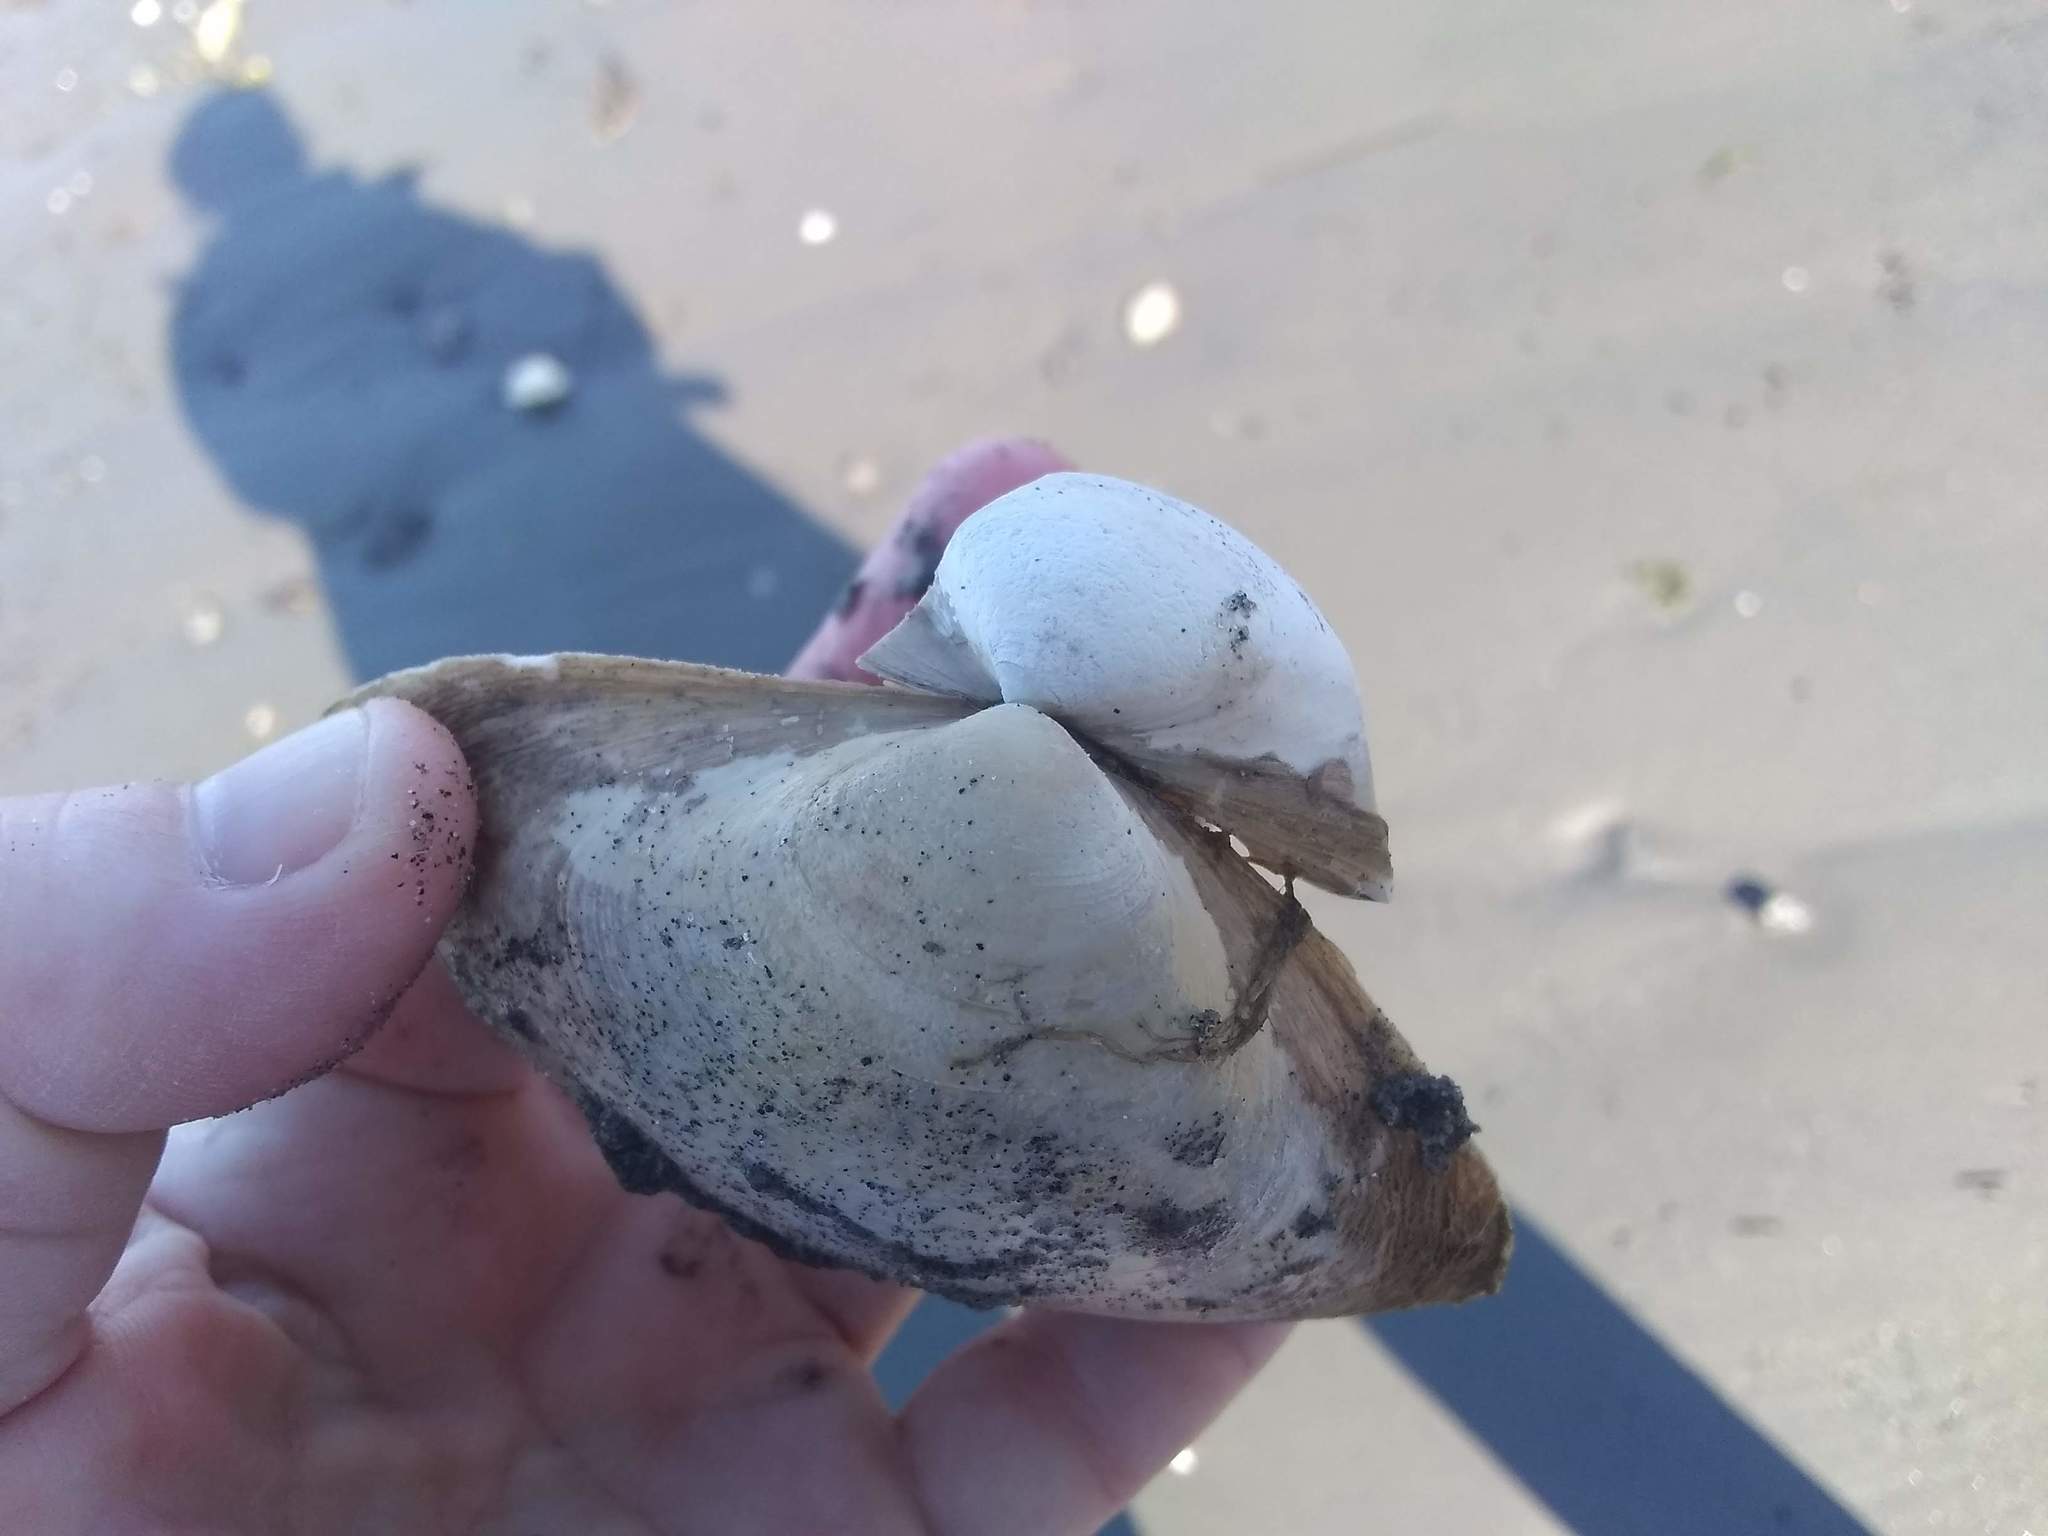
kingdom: Animalia
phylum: Mollusca
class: Bivalvia
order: Venerida
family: Mactridae
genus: Spisula
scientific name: Spisula solidissima
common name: Atlantic surf clam
